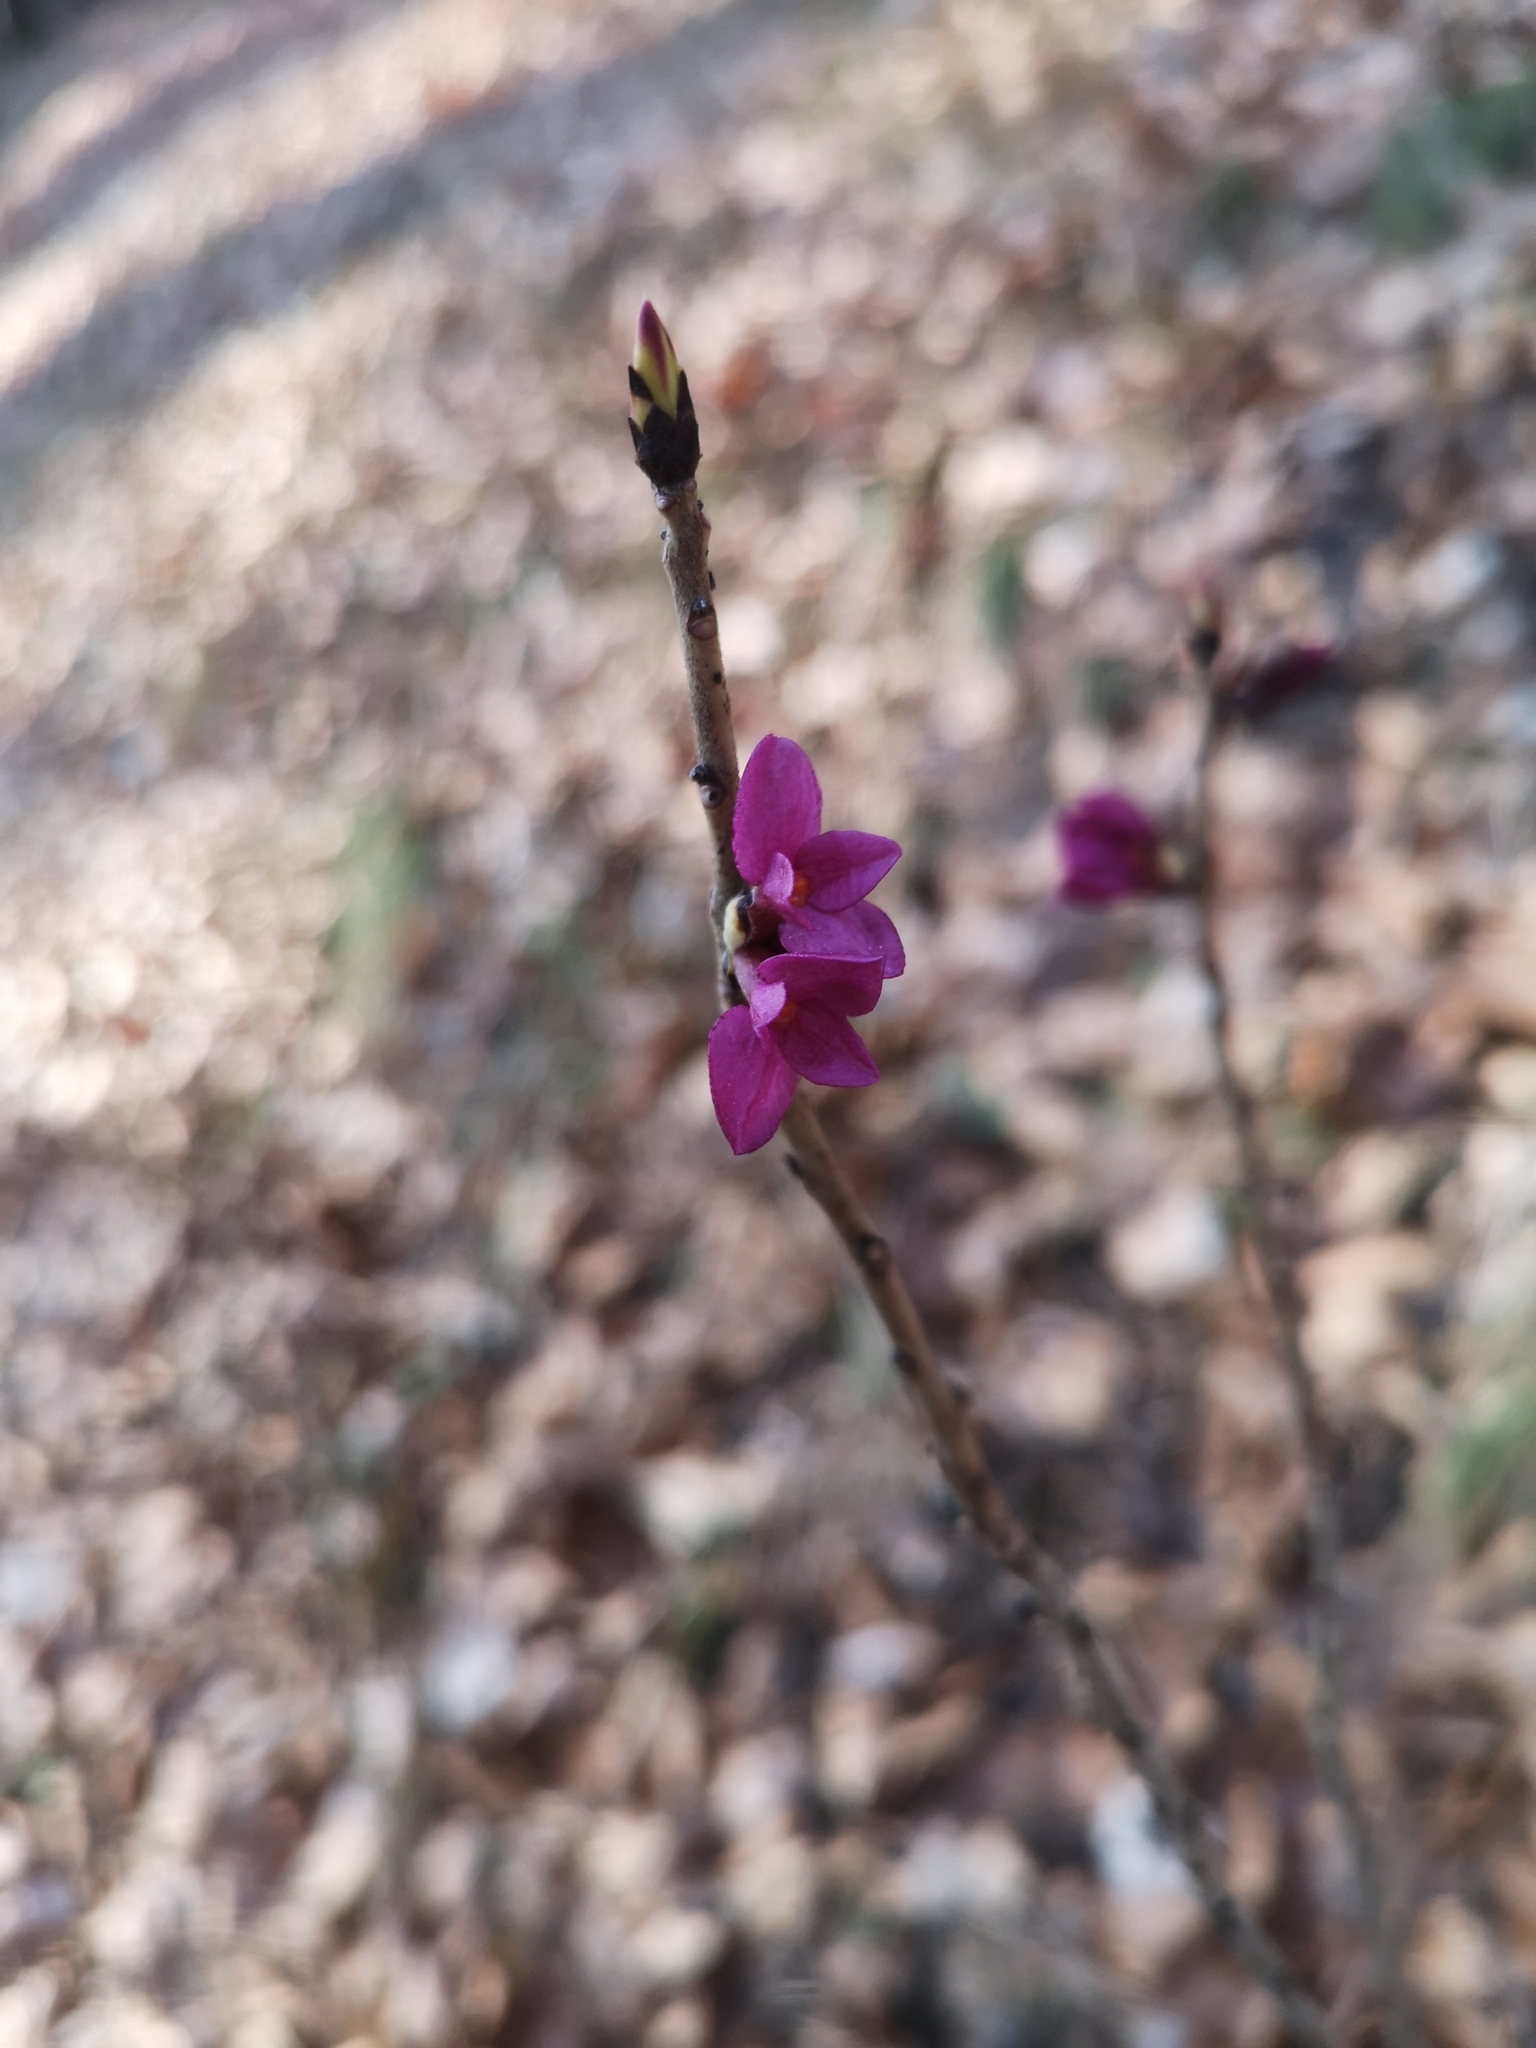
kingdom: Plantae
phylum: Tracheophyta
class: Magnoliopsida
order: Malvales
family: Thymelaeaceae
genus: Daphne
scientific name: Daphne mezereum
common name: Mezereon
